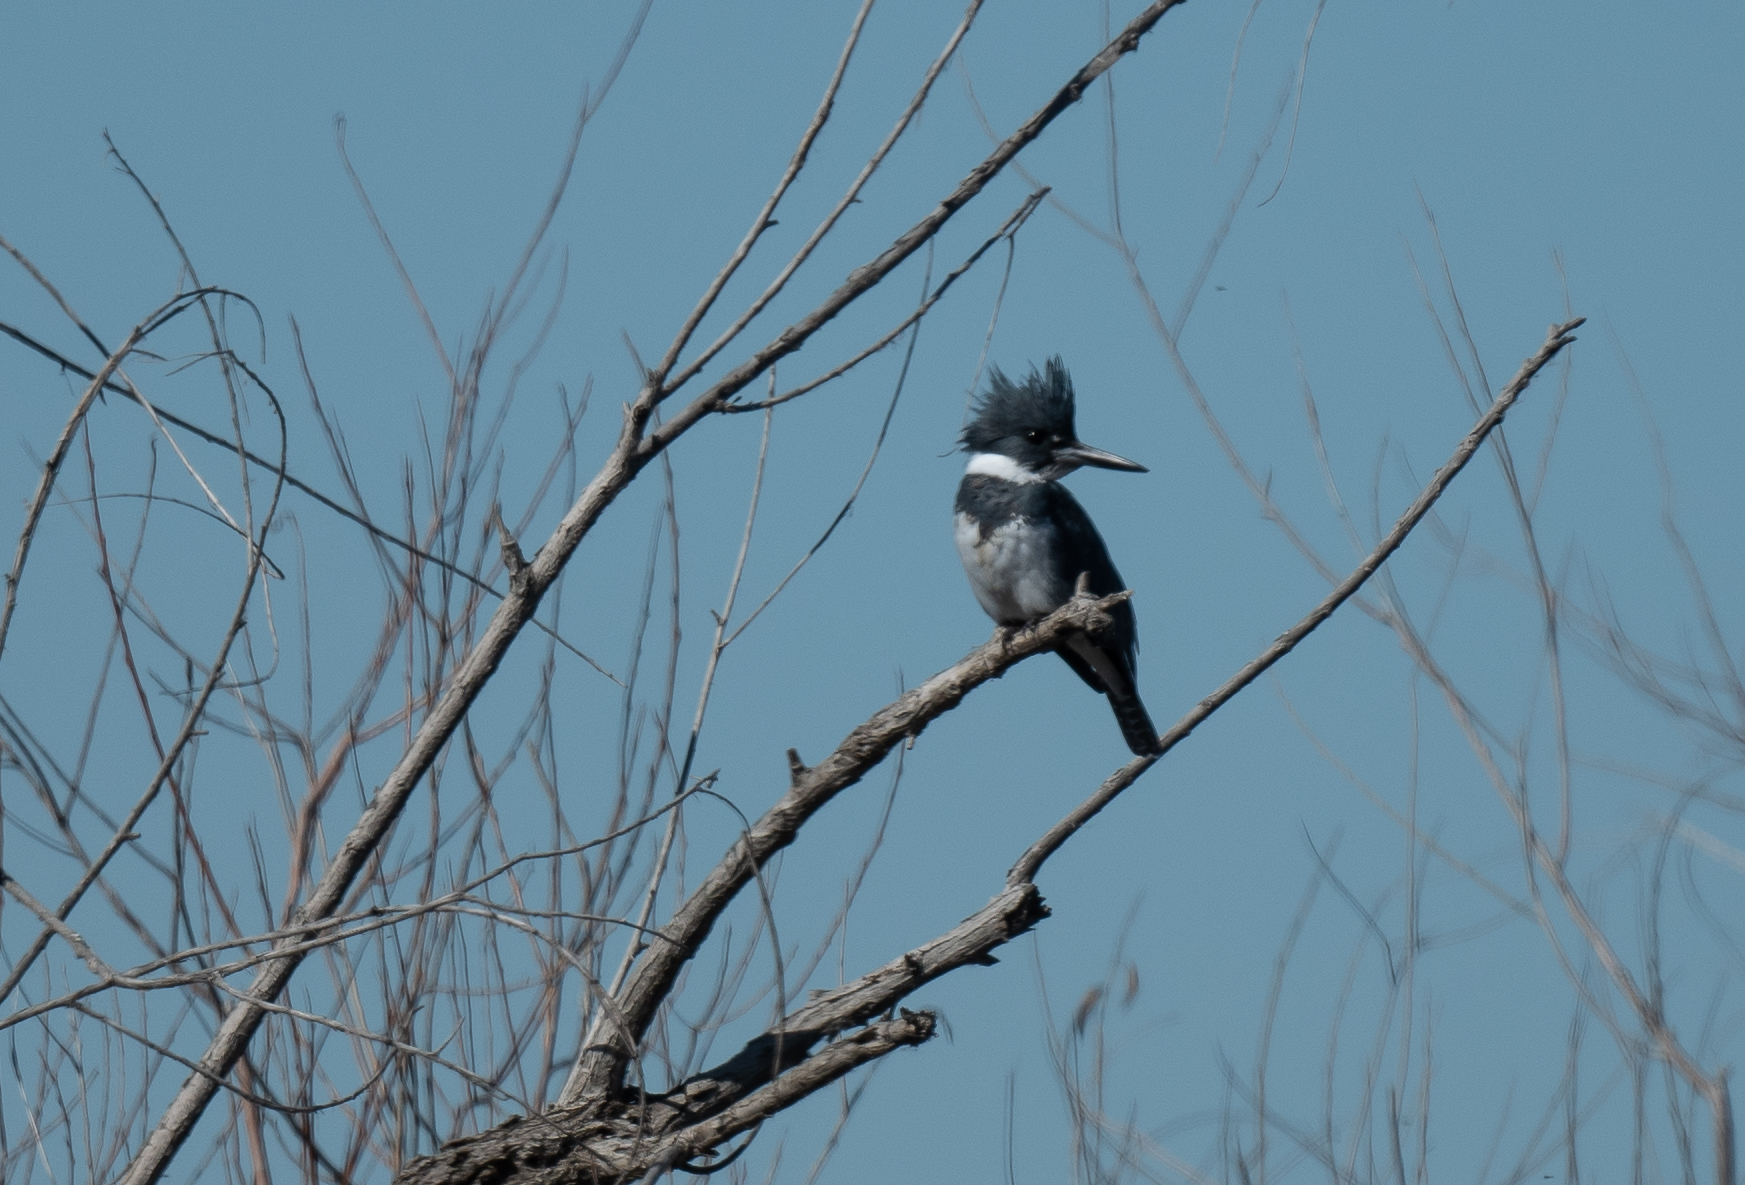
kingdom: Animalia
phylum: Chordata
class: Aves
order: Coraciiformes
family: Alcedinidae
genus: Megaceryle
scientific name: Megaceryle alcyon
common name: Belted kingfisher
